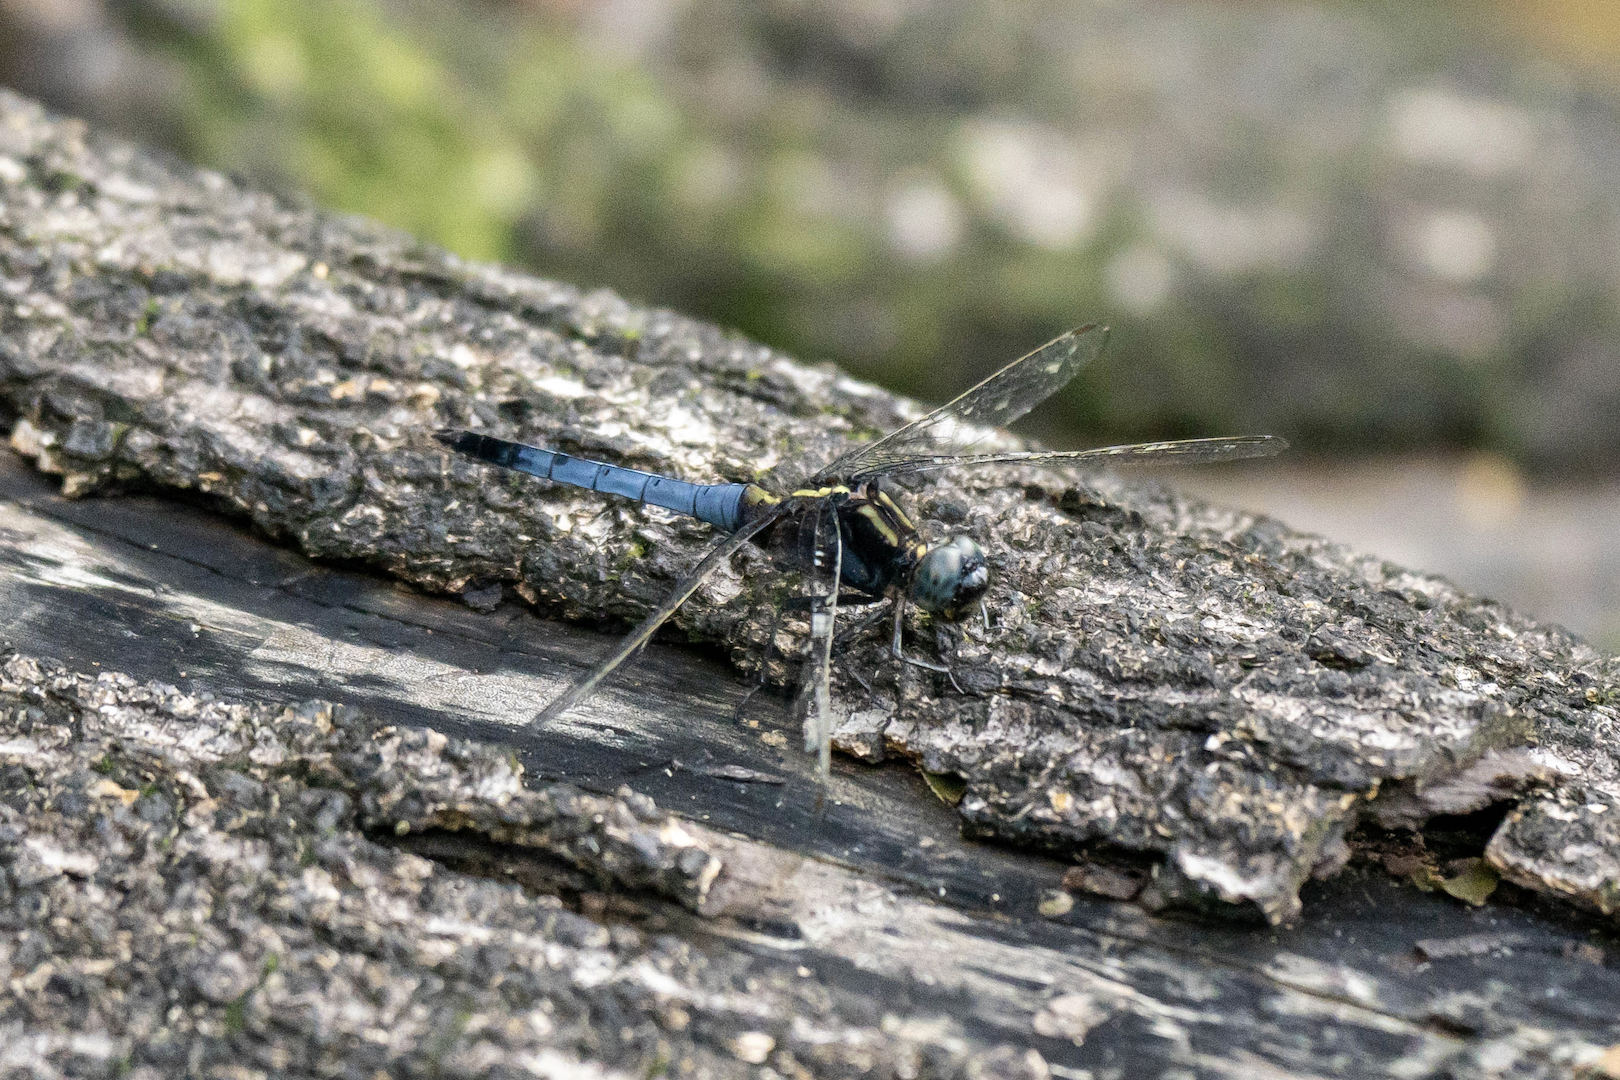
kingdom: Animalia
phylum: Arthropoda
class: Insecta
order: Odonata
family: Libellulidae
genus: Orthetrum
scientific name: Orthetrum luzonicum
